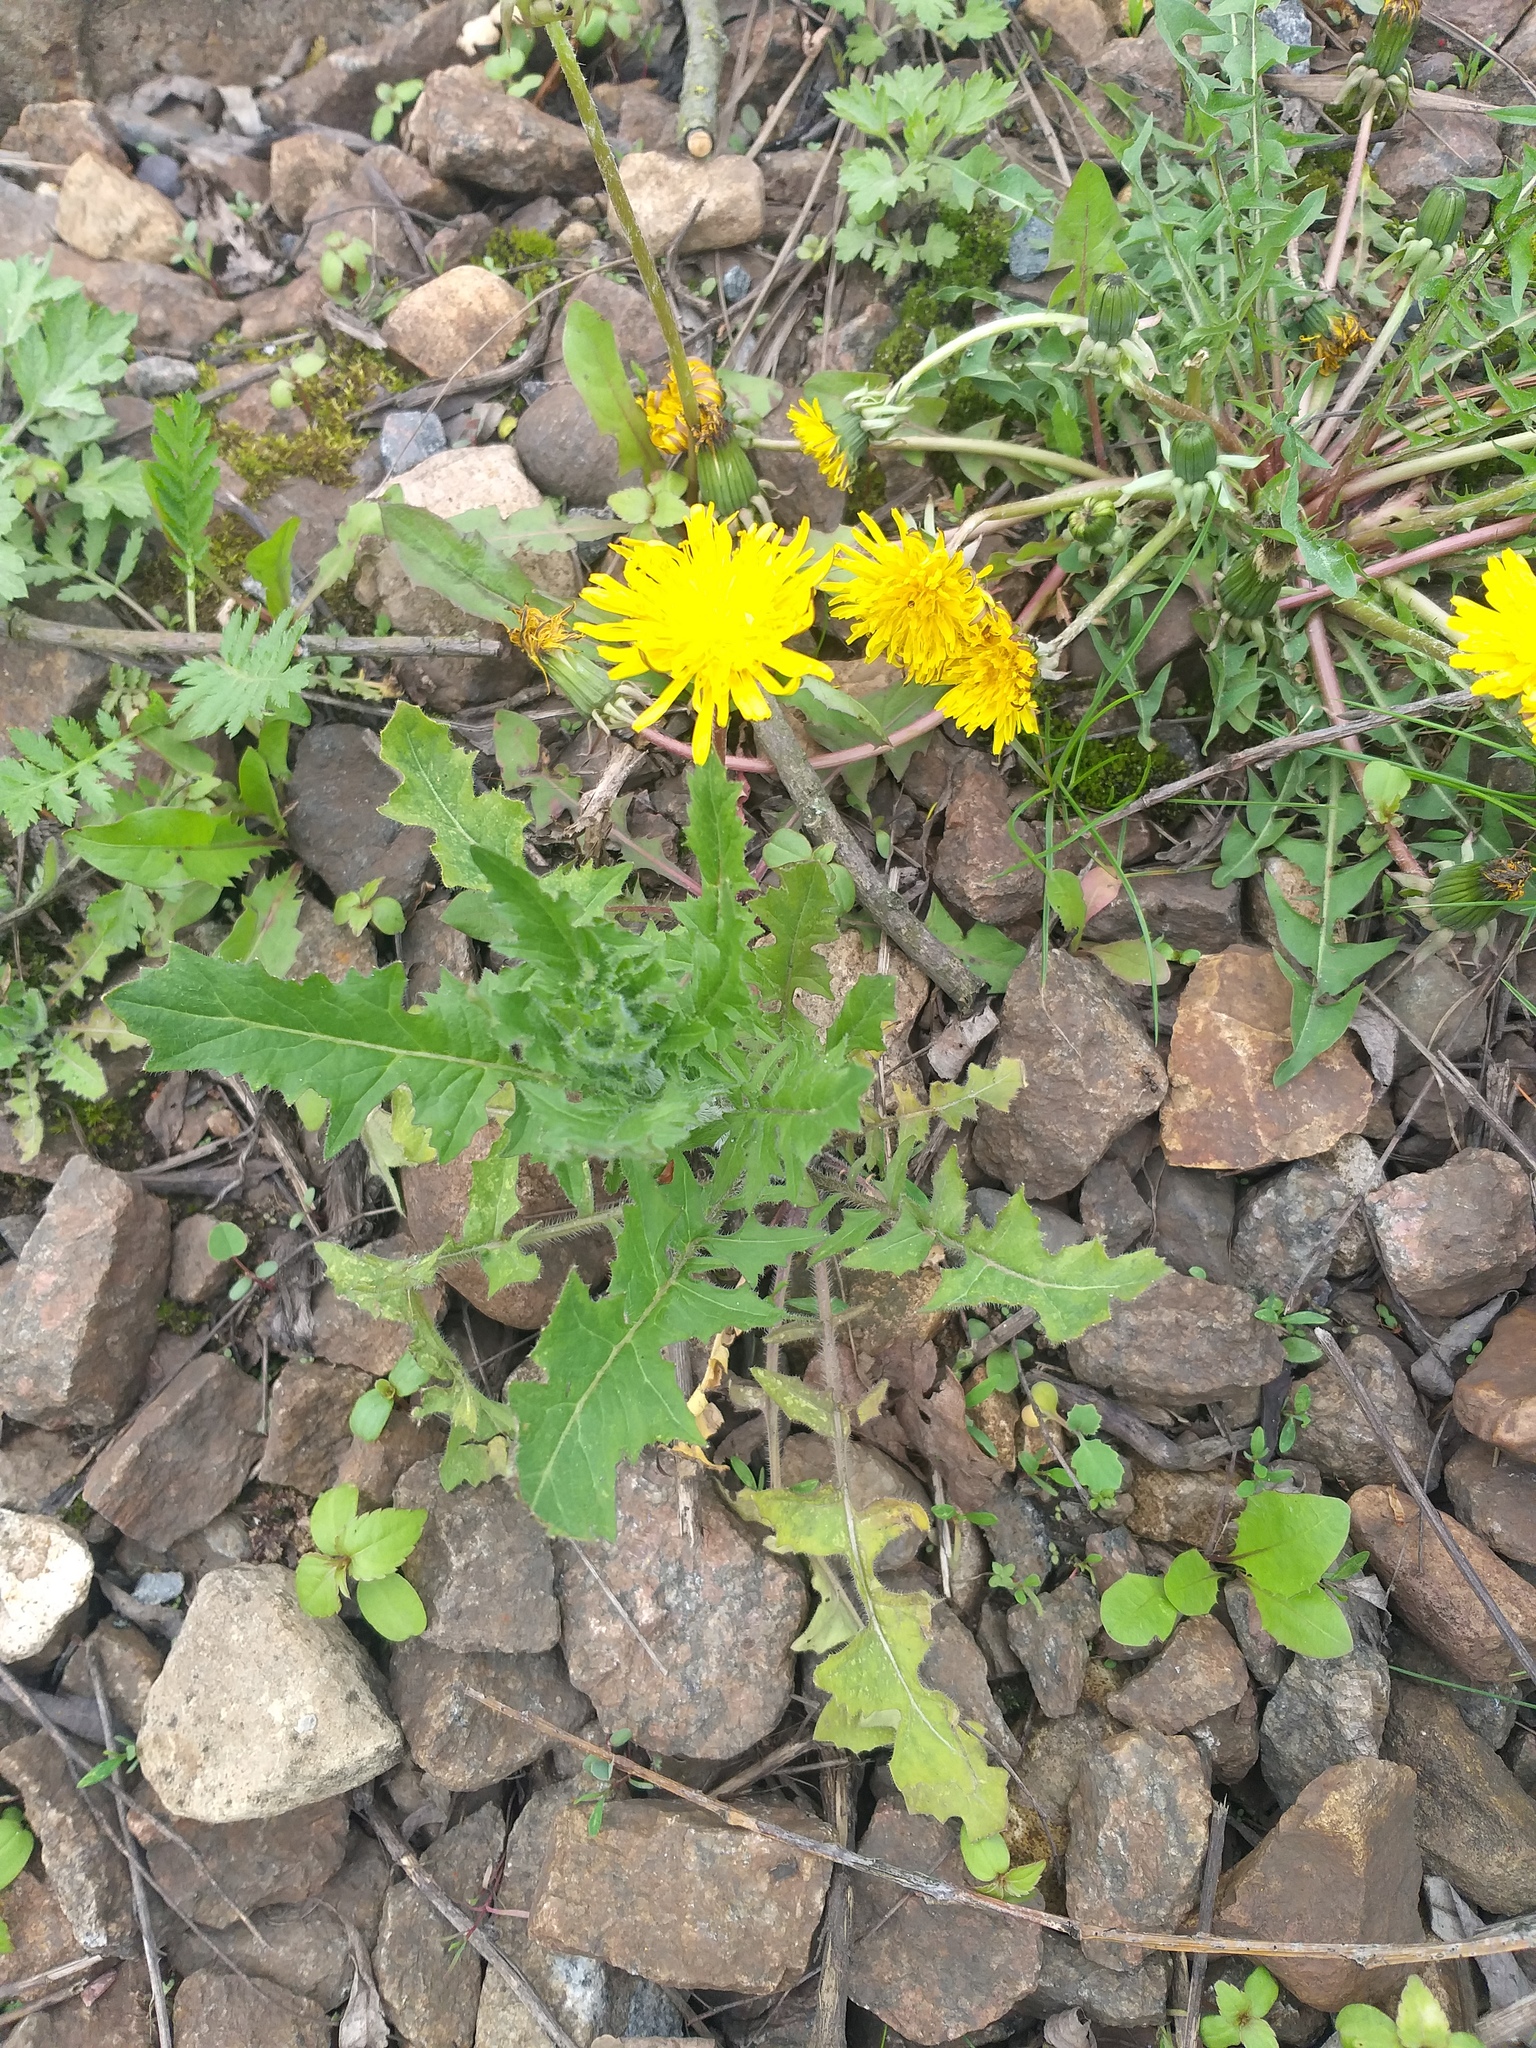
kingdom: Plantae
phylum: Tracheophyta
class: Magnoliopsida
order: Brassicales
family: Brassicaceae
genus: Sisymbrium
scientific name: Sisymbrium loeselii
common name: False london-rocket
